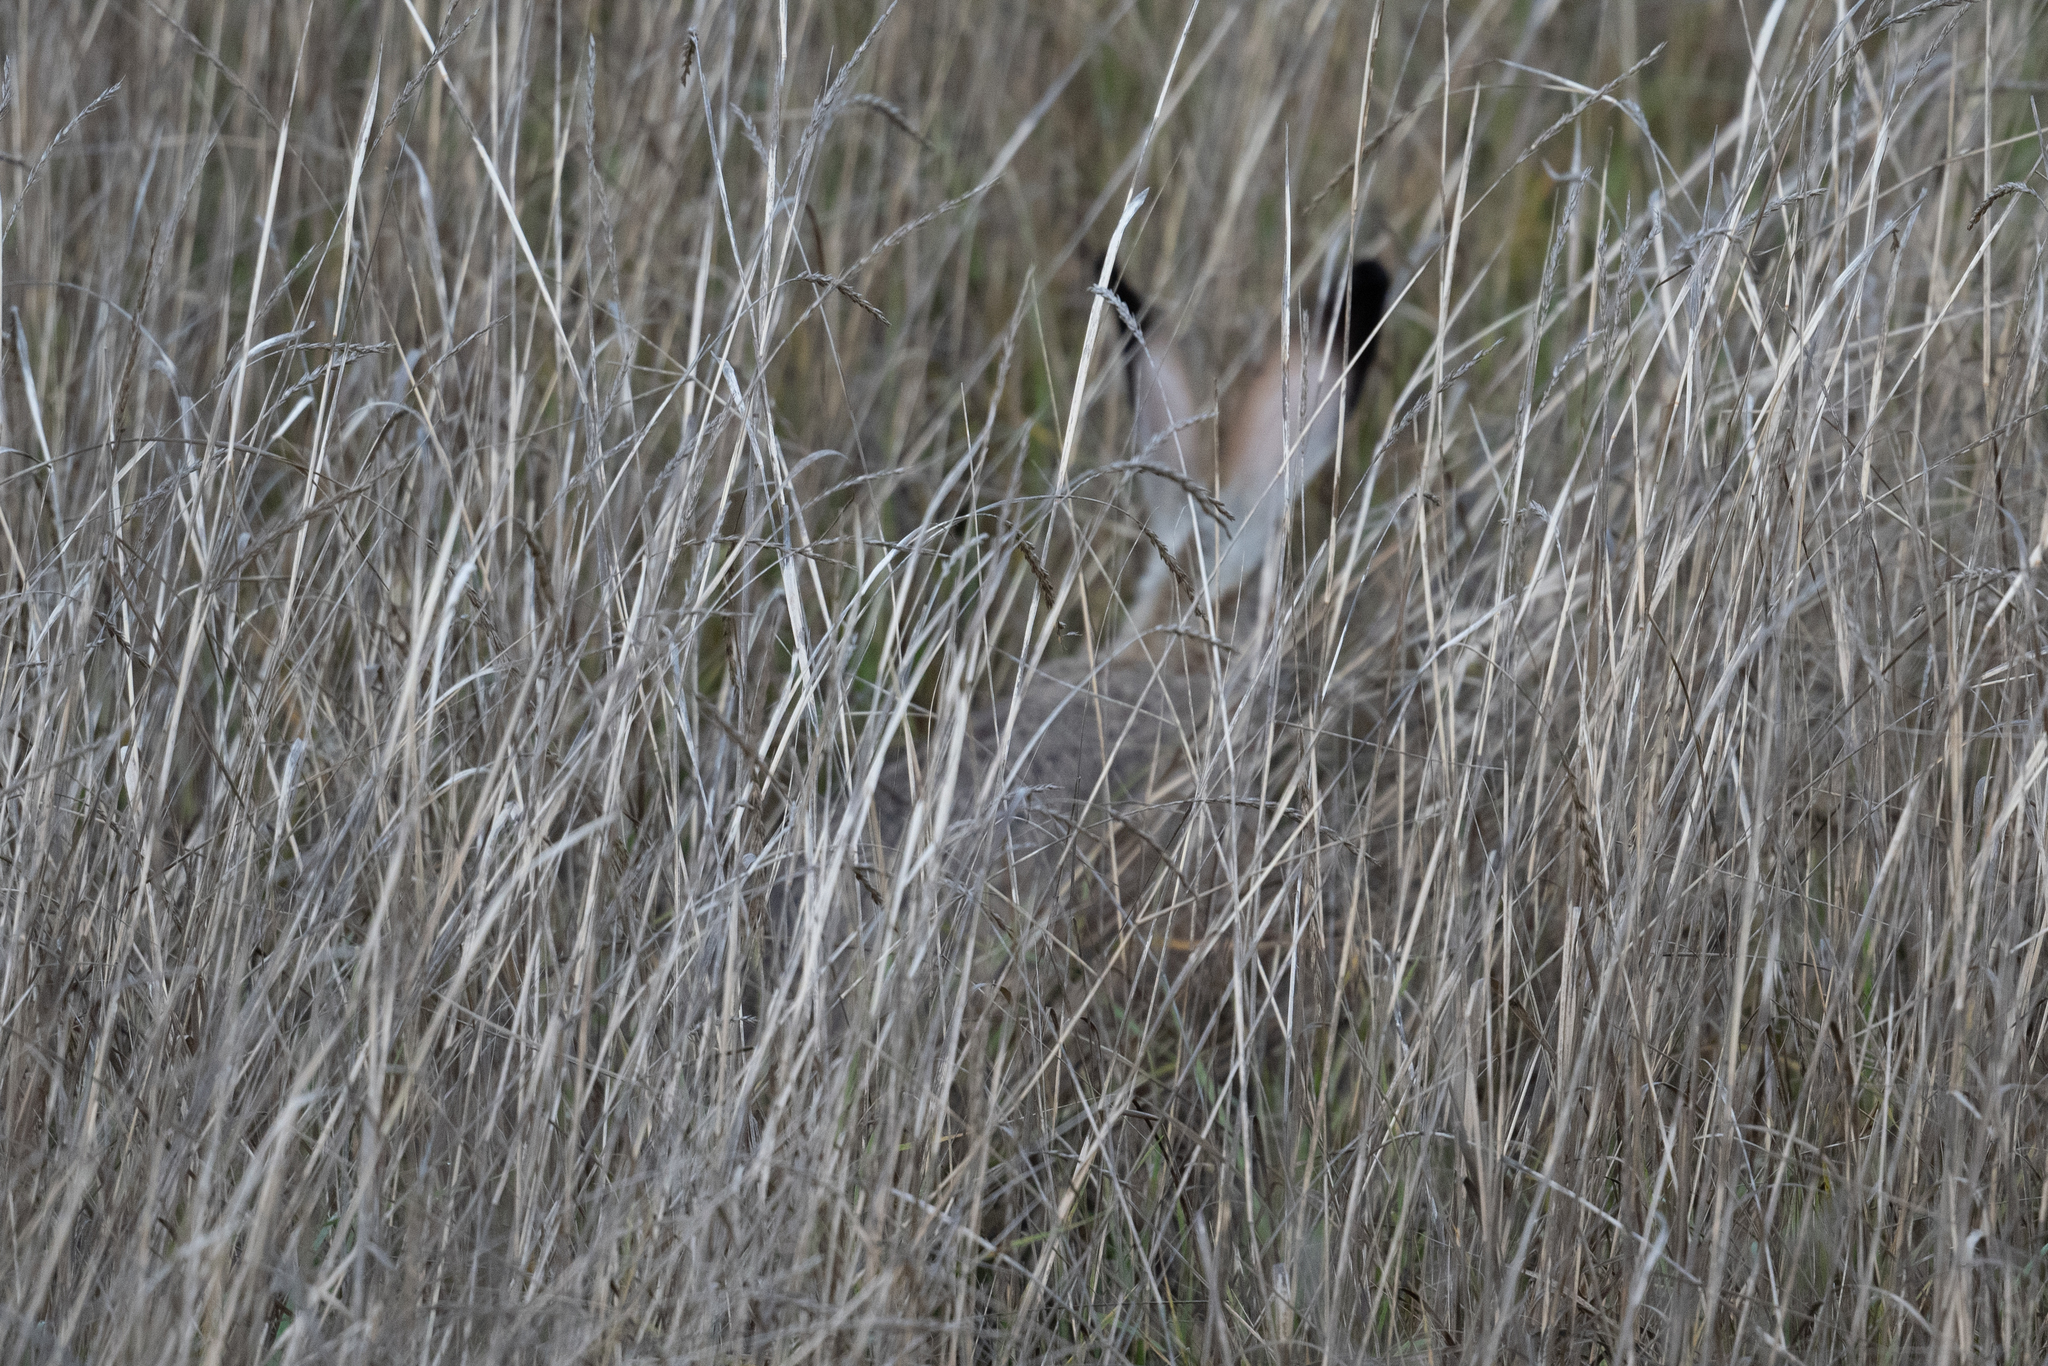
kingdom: Animalia
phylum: Chordata
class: Mammalia
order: Lagomorpha
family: Leporidae
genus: Lepus
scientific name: Lepus californicus
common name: Black-tailed jackrabbit
